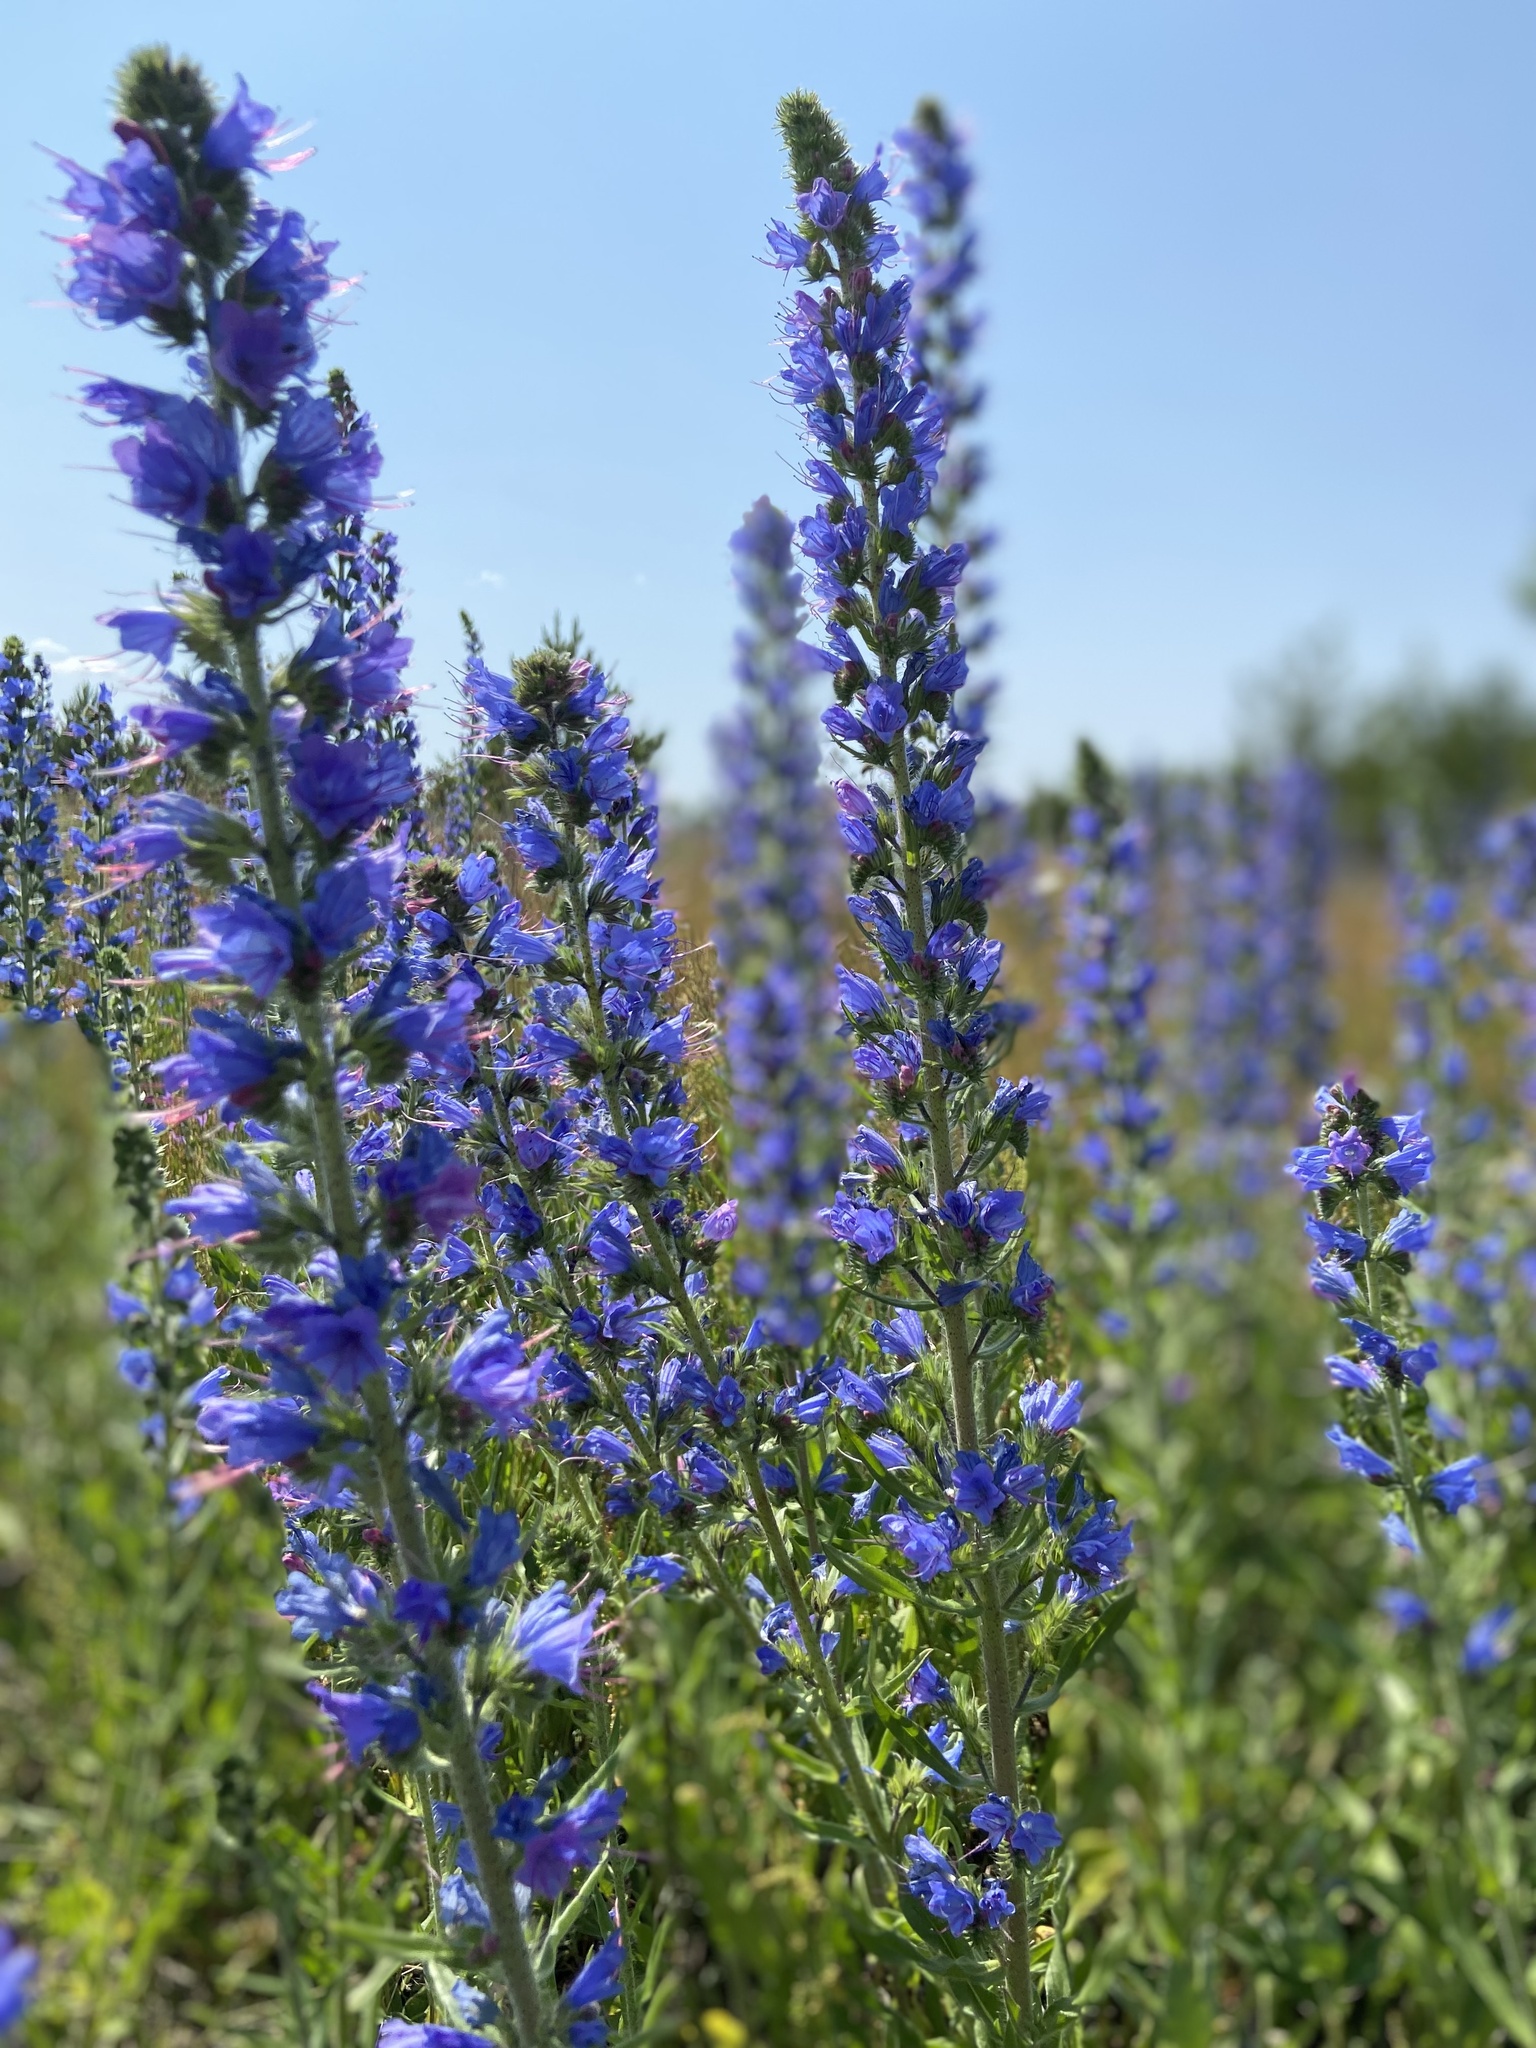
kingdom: Plantae
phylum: Tracheophyta
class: Magnoliopsida
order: Boraginales
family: Boraginaceae
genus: Echium
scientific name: Echium vulgare
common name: Common viper's bugloss
